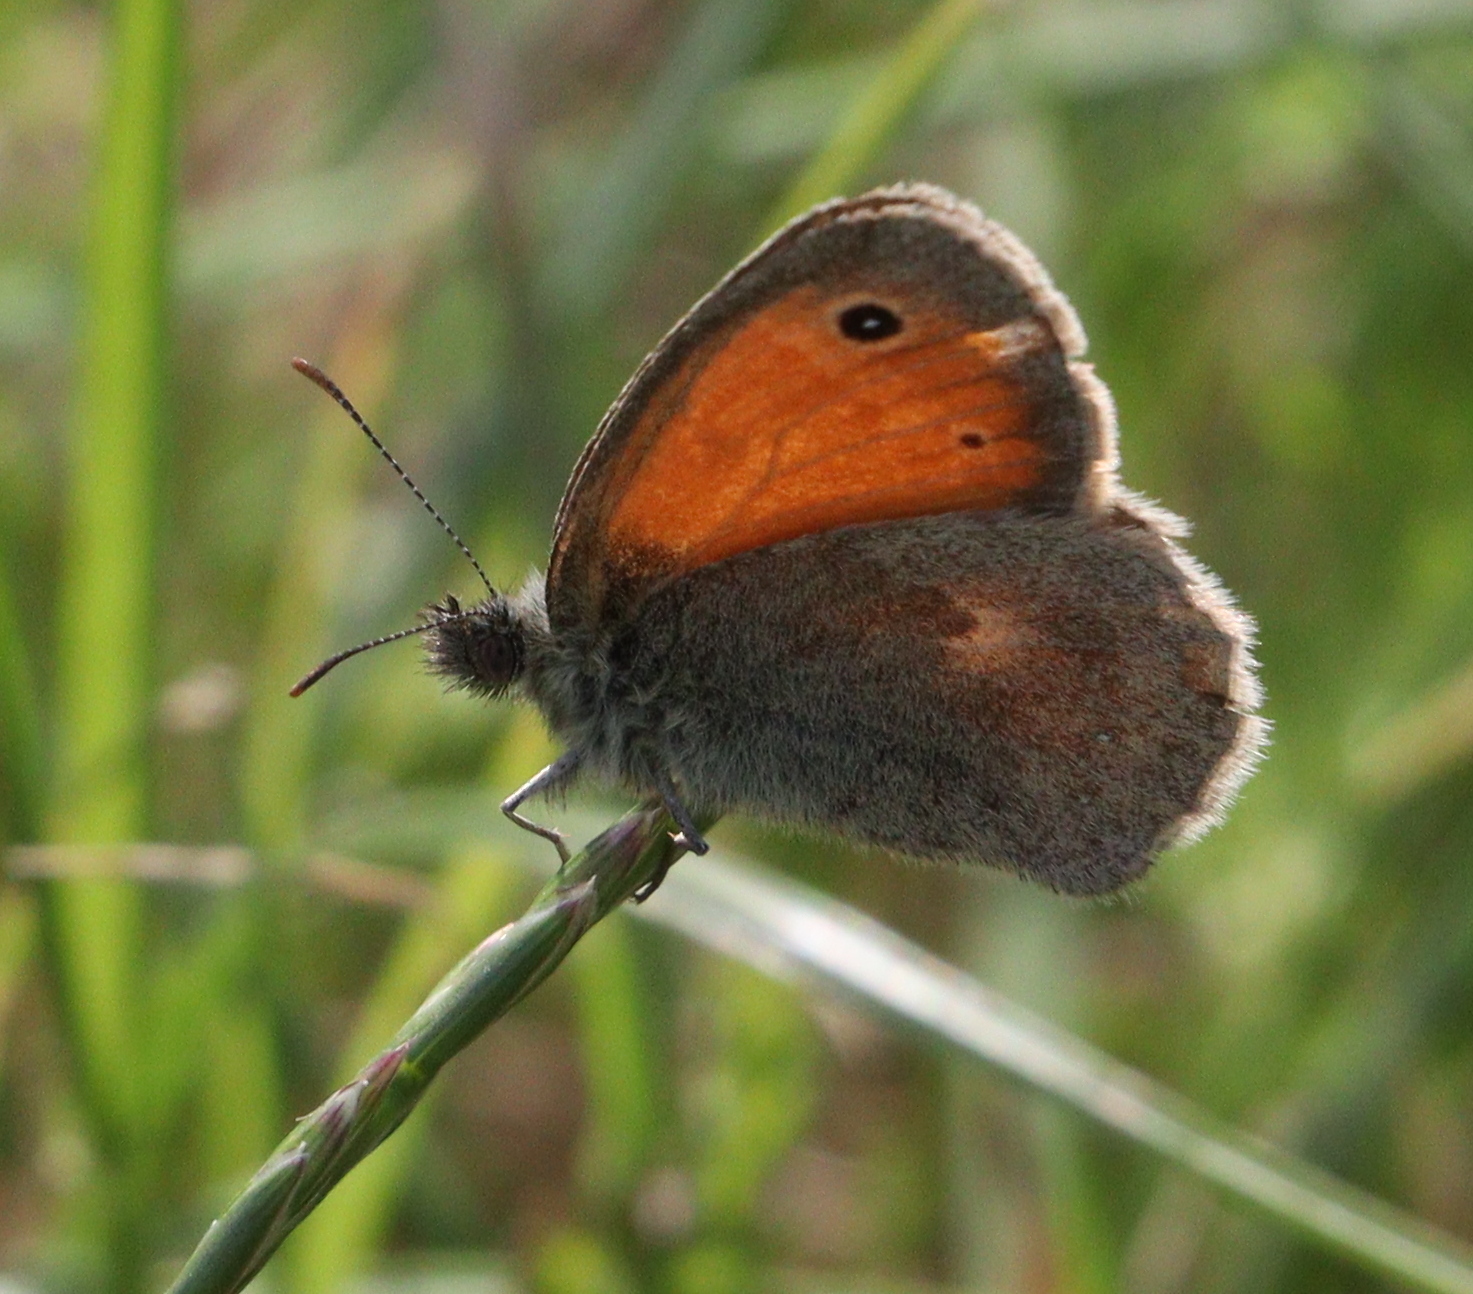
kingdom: Animalia
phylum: Arthropoda
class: Insecta
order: Lepidoptera
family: Nymphalidae
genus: Coenonympha
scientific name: Coenonympha pamphilus
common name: Small heath
